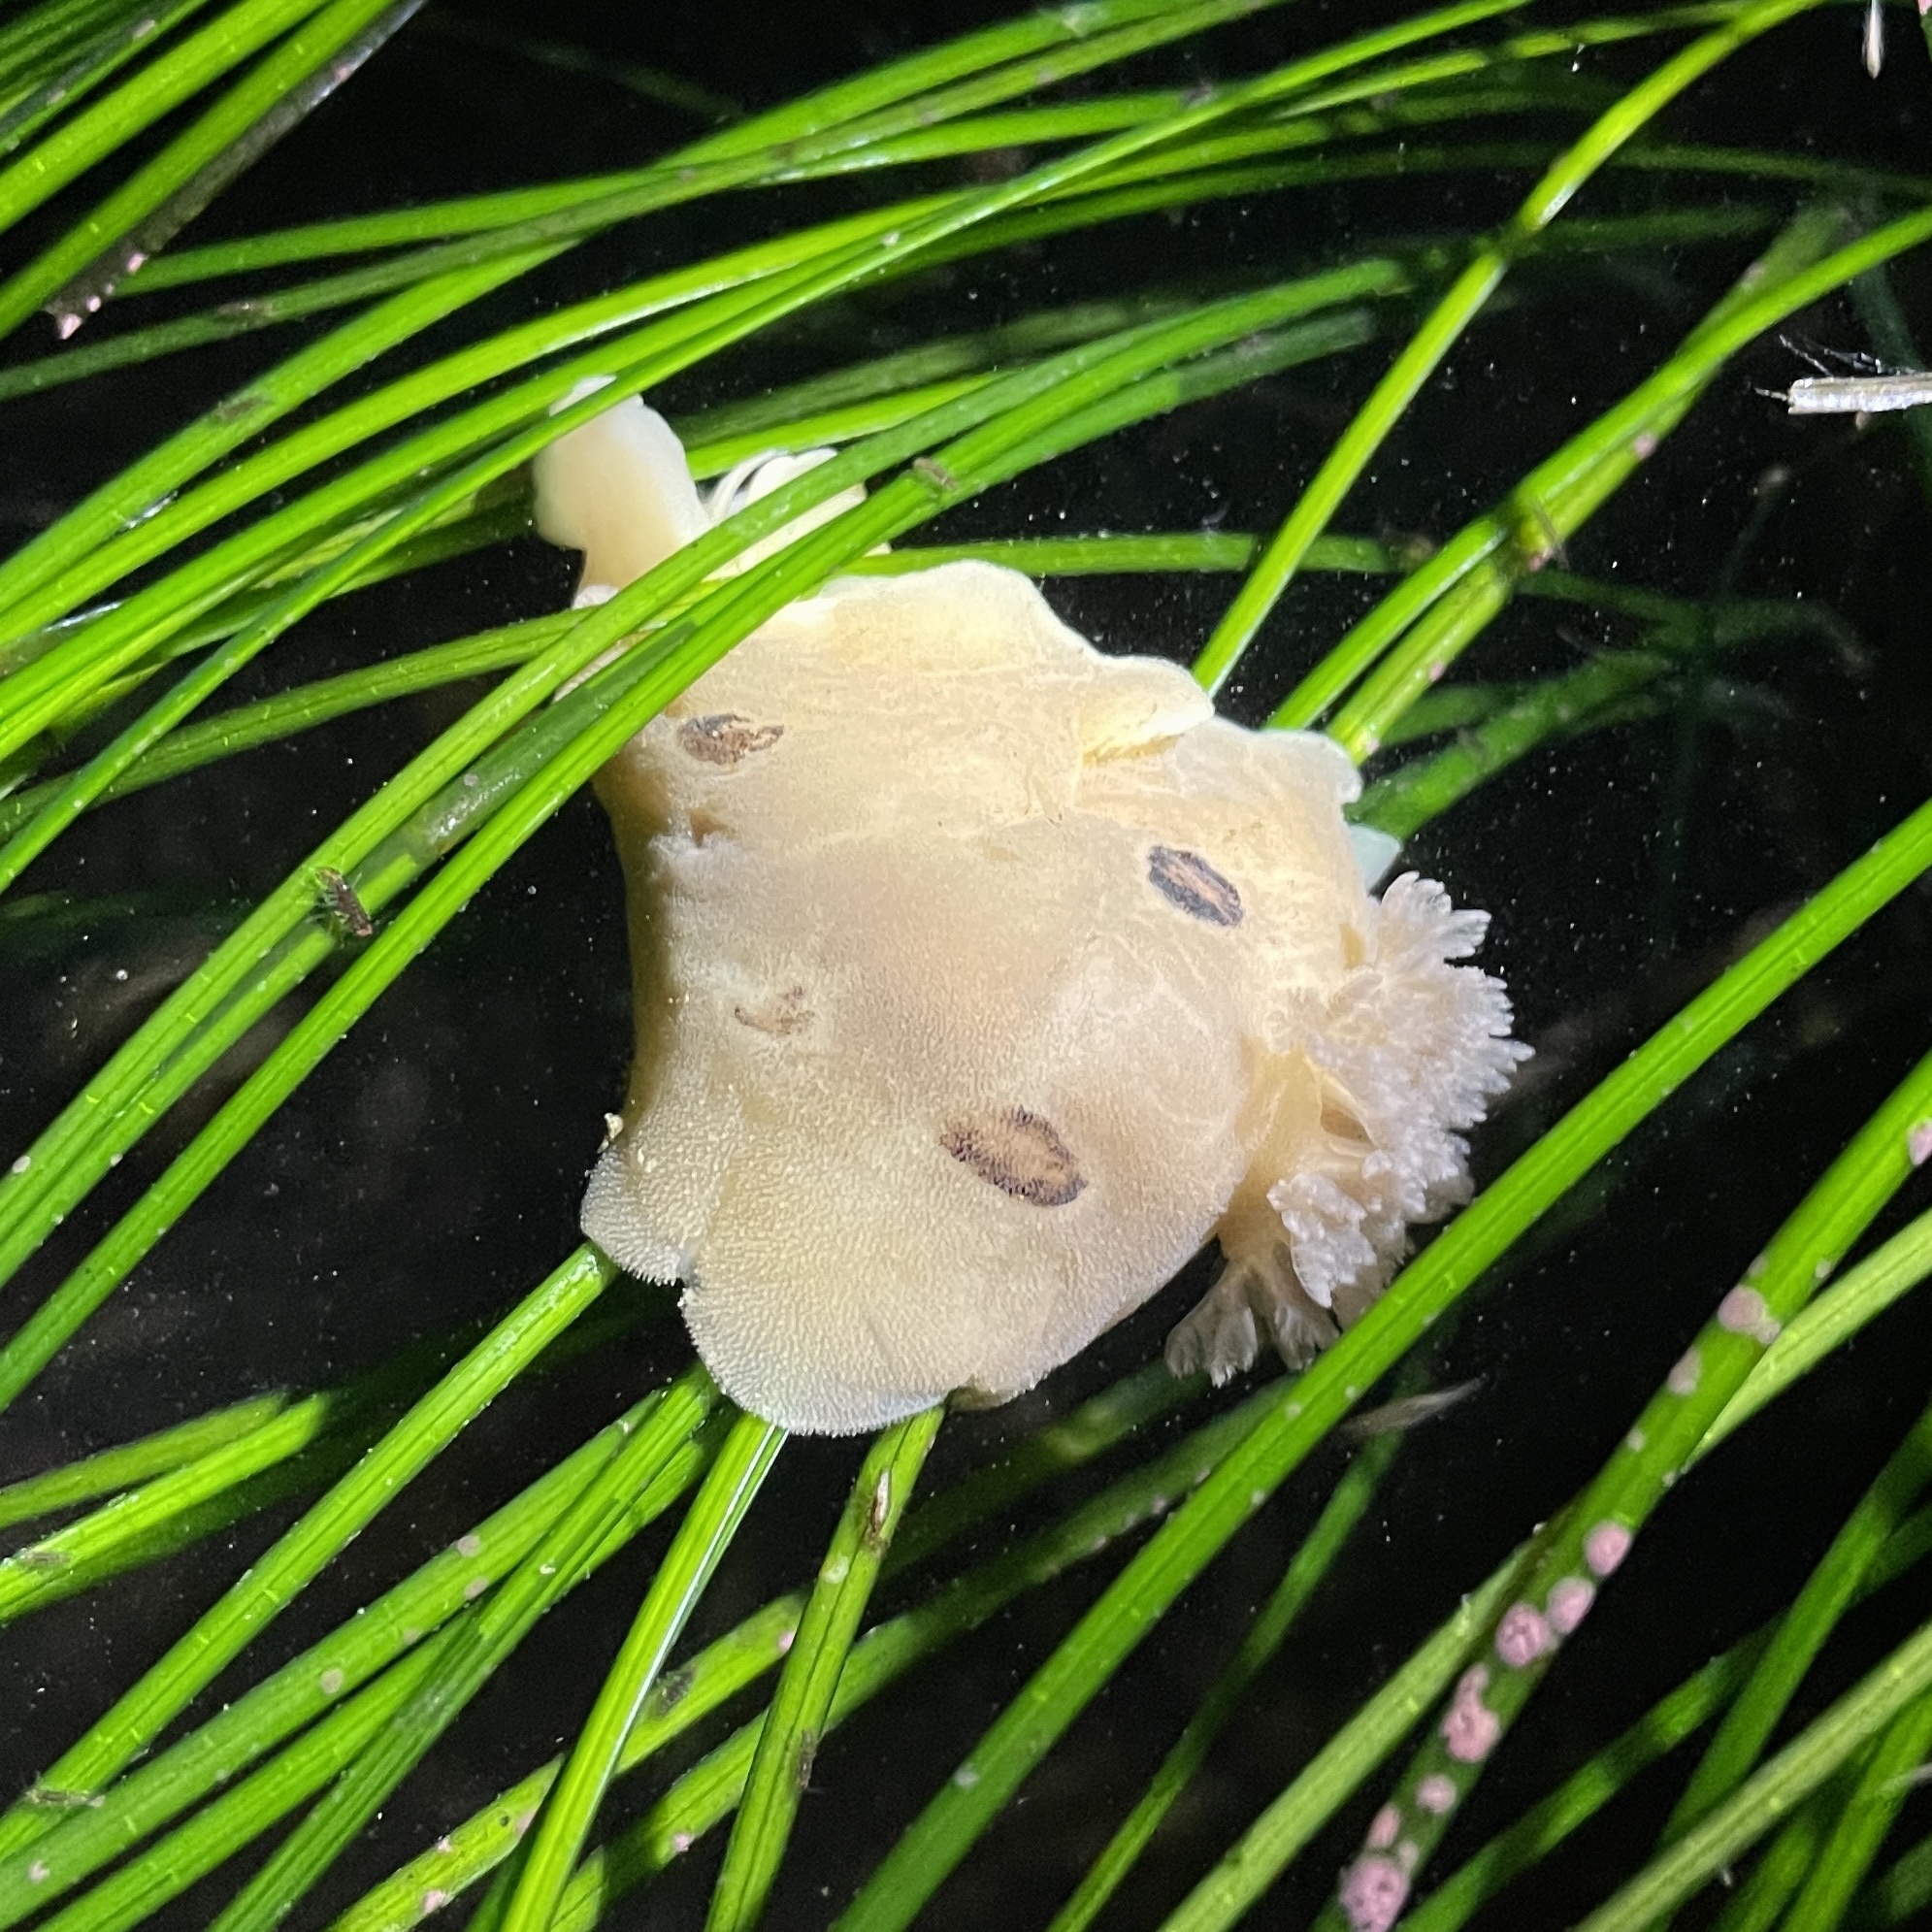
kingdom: Animalia
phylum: Mollusca
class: Gastropoda
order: Nudibranchia
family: Discodorididae
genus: Diaulula
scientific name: Diaulula sandiegensis
